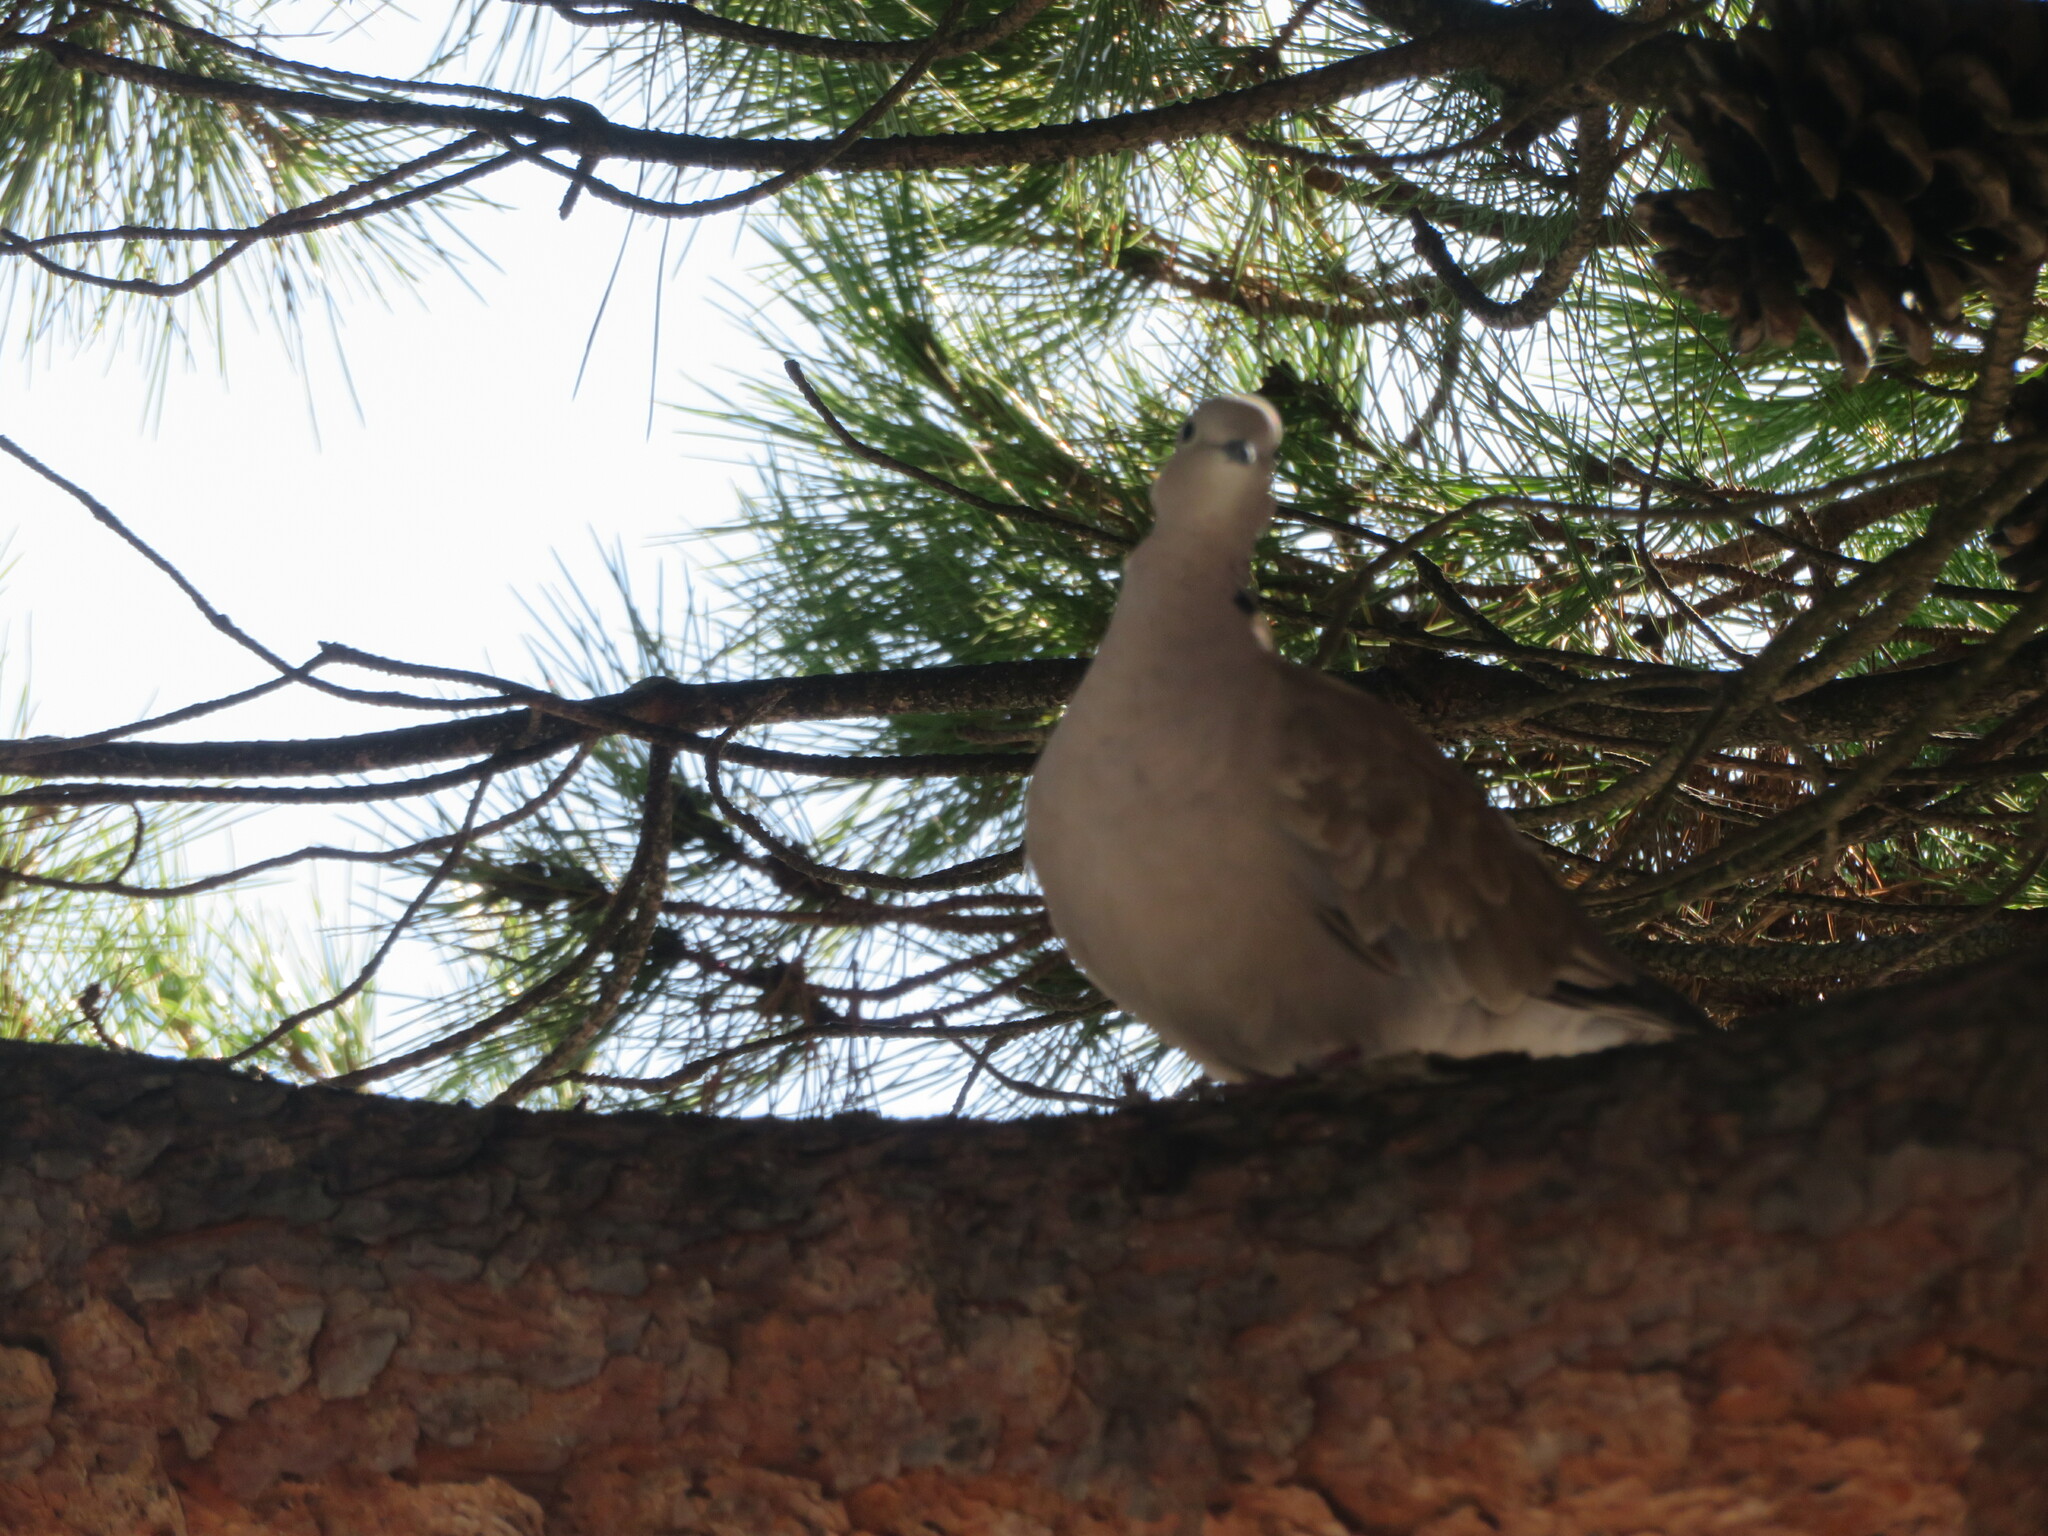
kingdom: Animalia
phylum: Chordata
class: Aves
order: Columbiformes
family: Columbidae
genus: Streptopelia
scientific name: Streptopelia decaocto
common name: Eurasian collared dove
